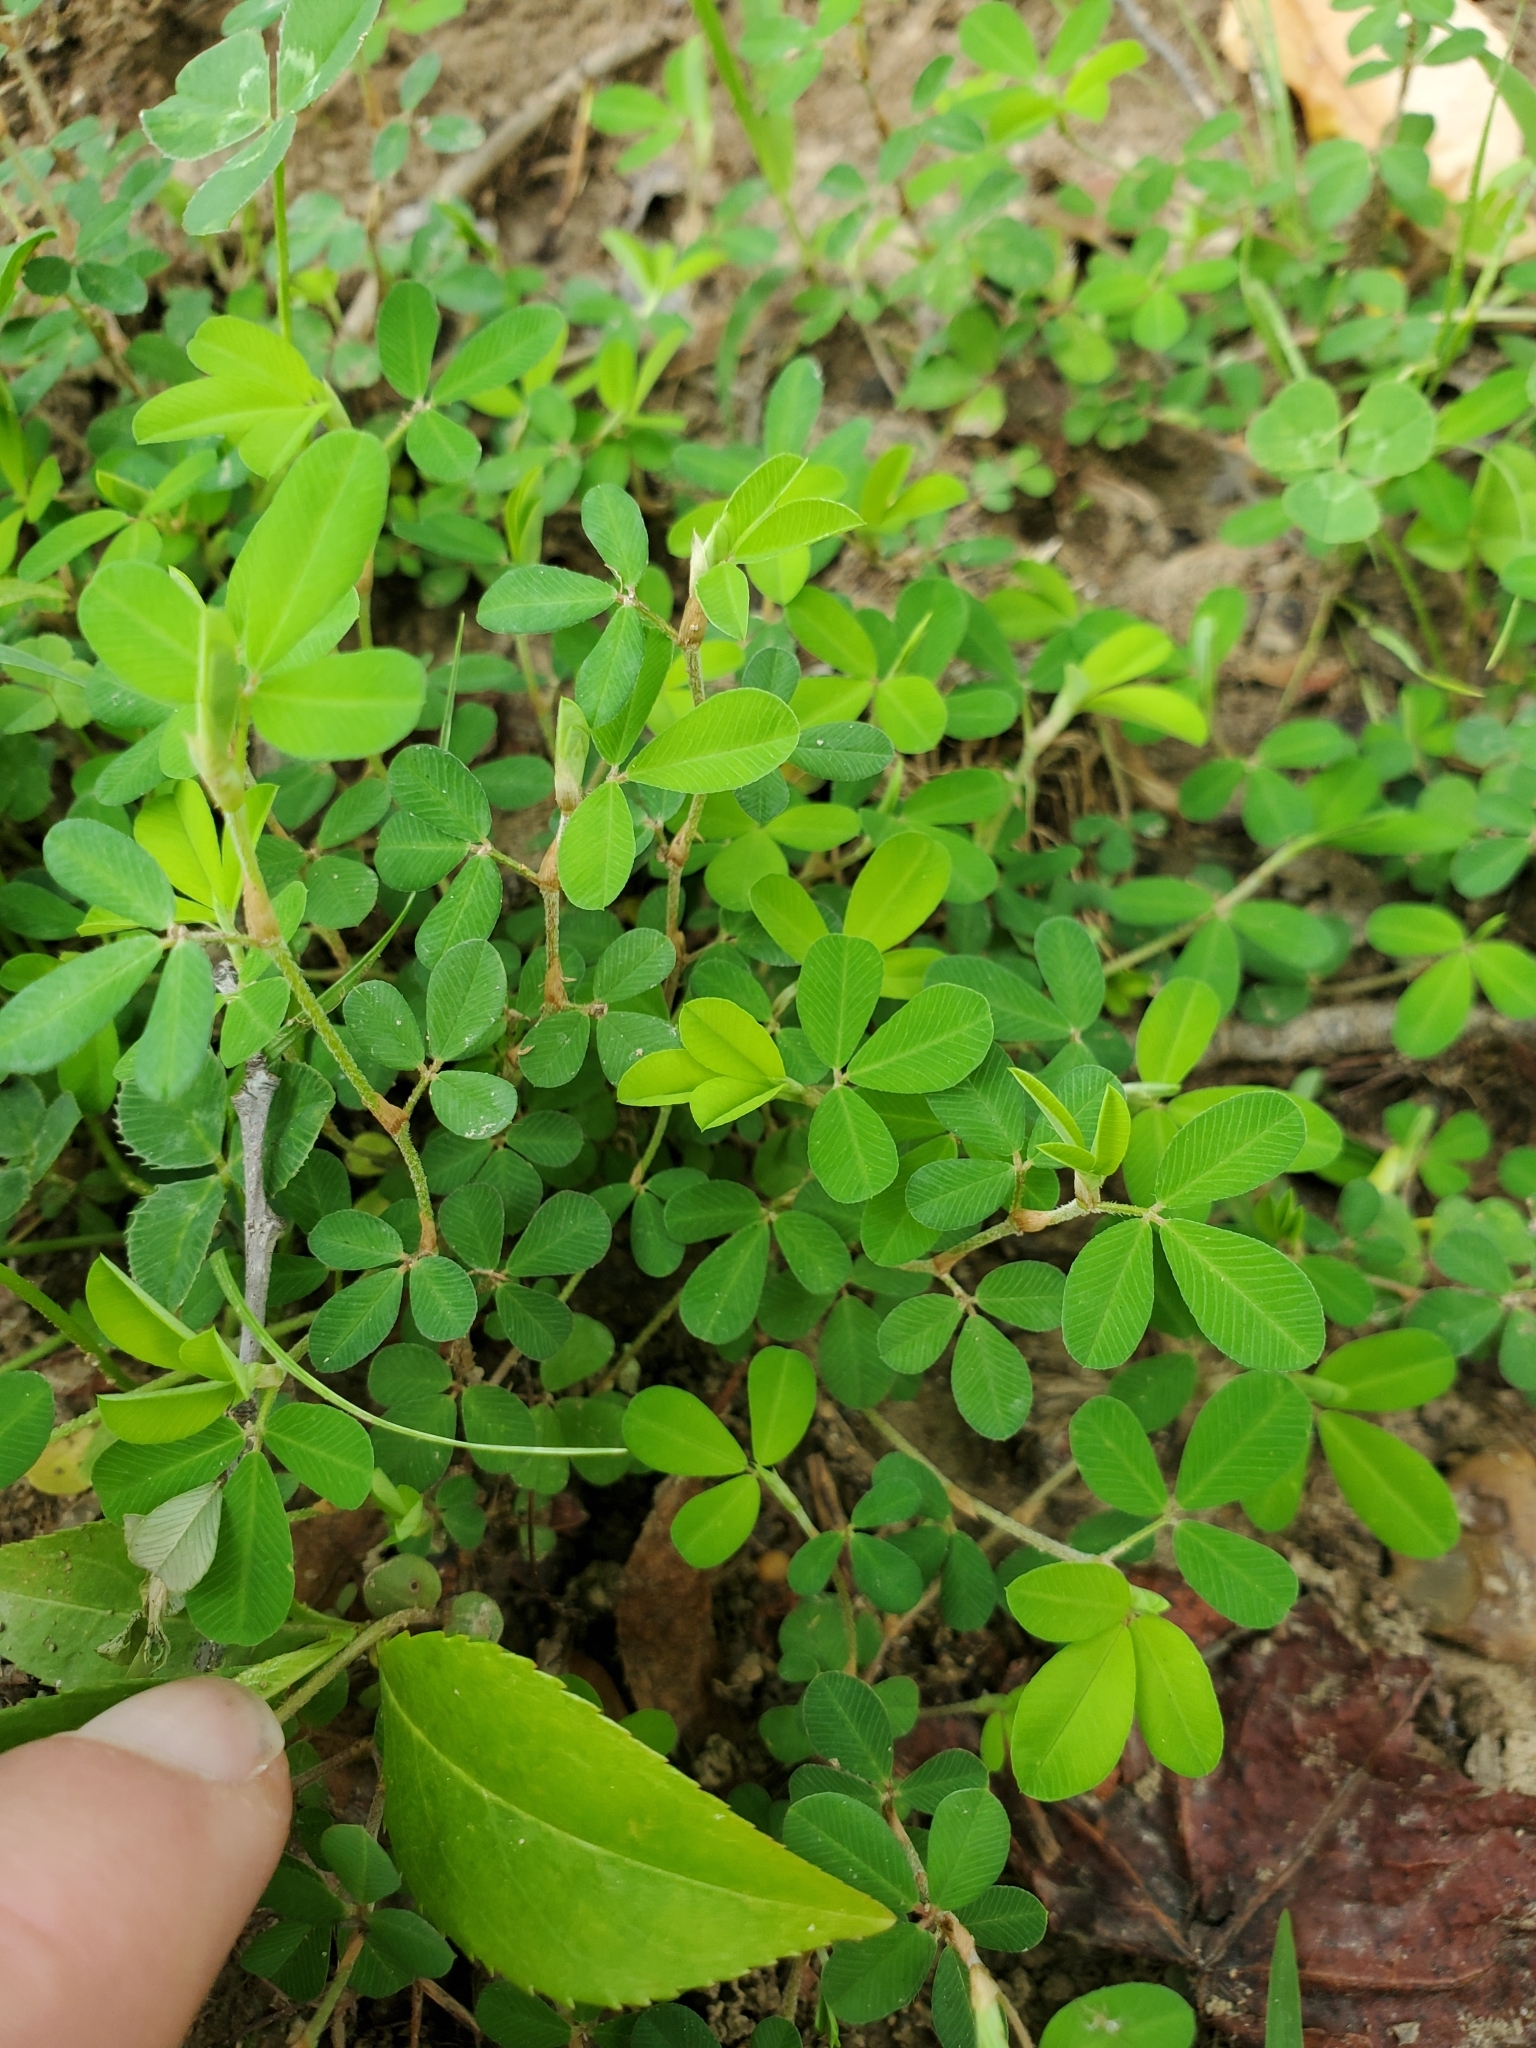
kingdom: Plantae
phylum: Tracheophyta
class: Magnoliopsida
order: Fabales
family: Fabaceae
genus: Kummerowia
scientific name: Kummerowia striata
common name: Japanese clover
